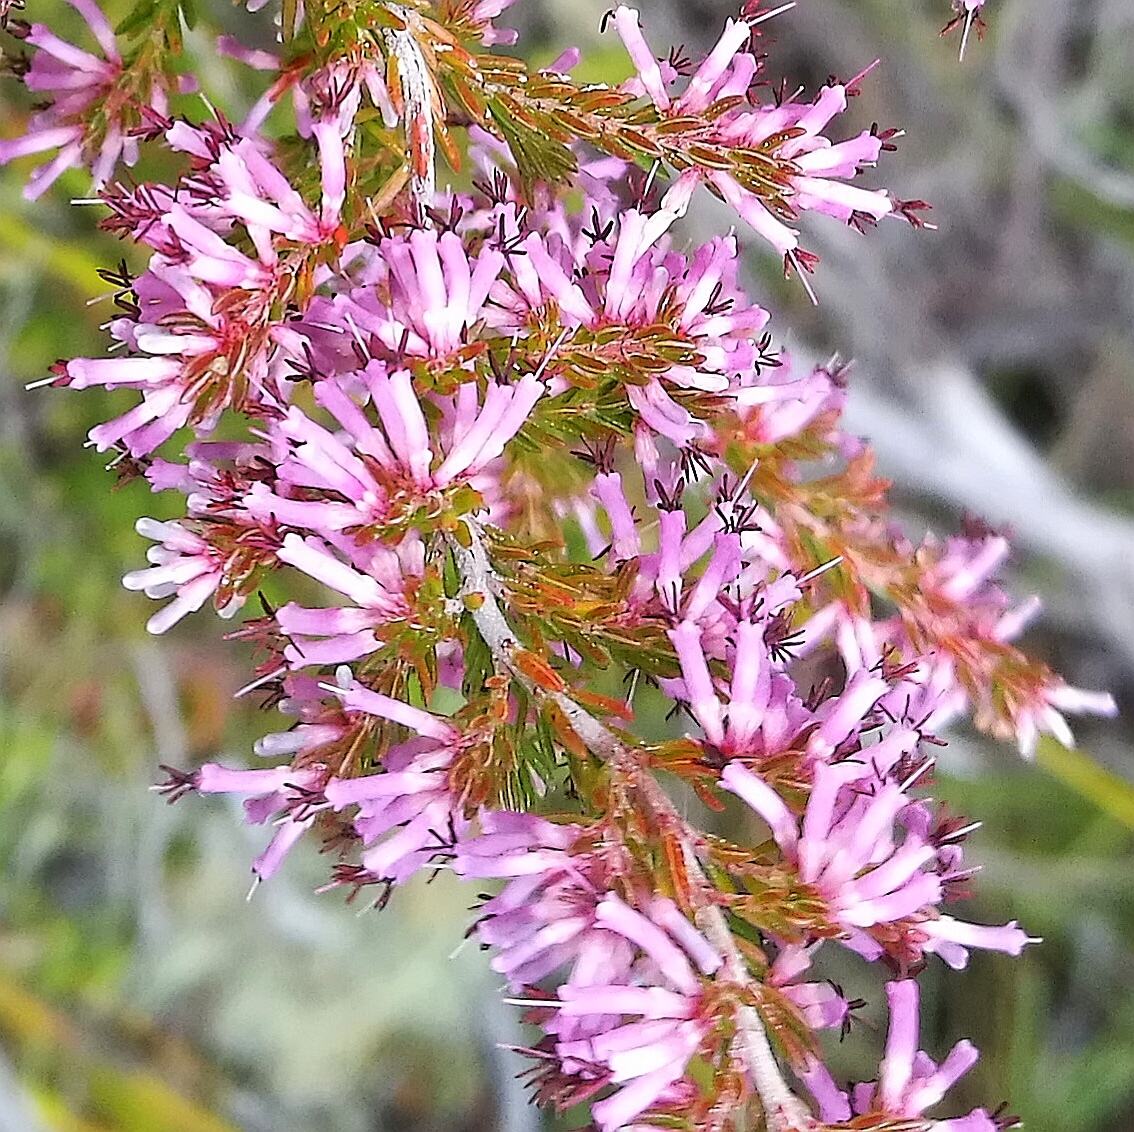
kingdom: Plantae
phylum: Tracheophyta
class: Magnoliopsida
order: Ericales
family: Ericaceae
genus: Erica
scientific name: Erica uberiflora
